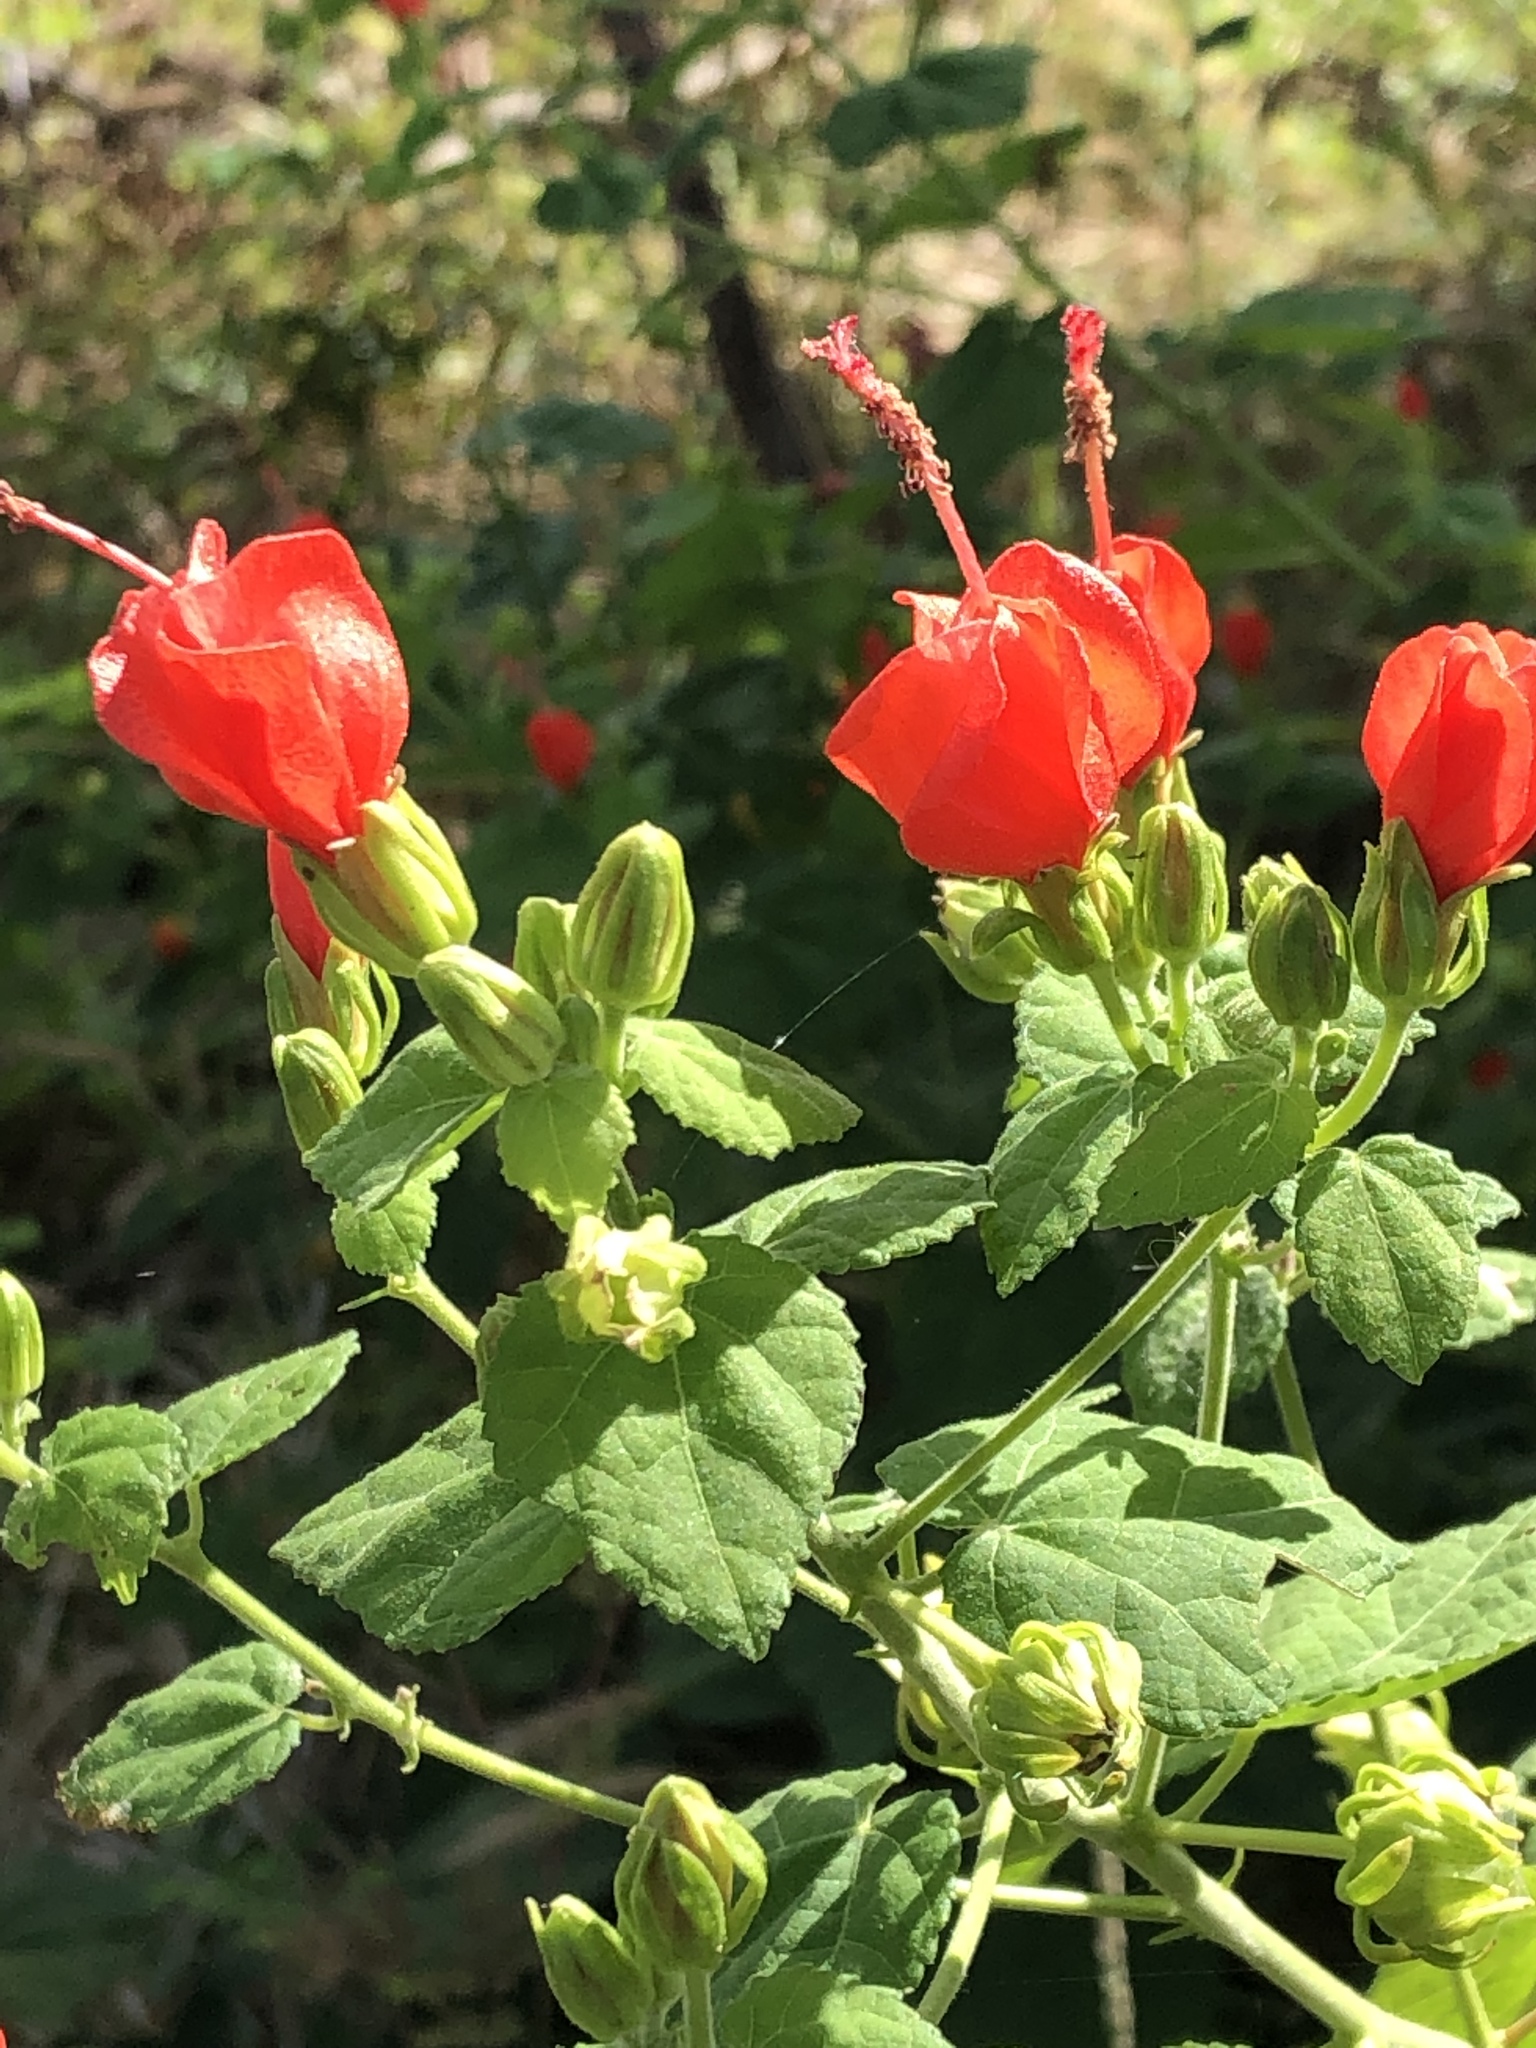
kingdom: Plantae
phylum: Tracheophyta
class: Magnoliopsida
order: Malvales
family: Malvaceae
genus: Malvaviscus
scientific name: Malvaviscus arboreus
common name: Wax mallow
